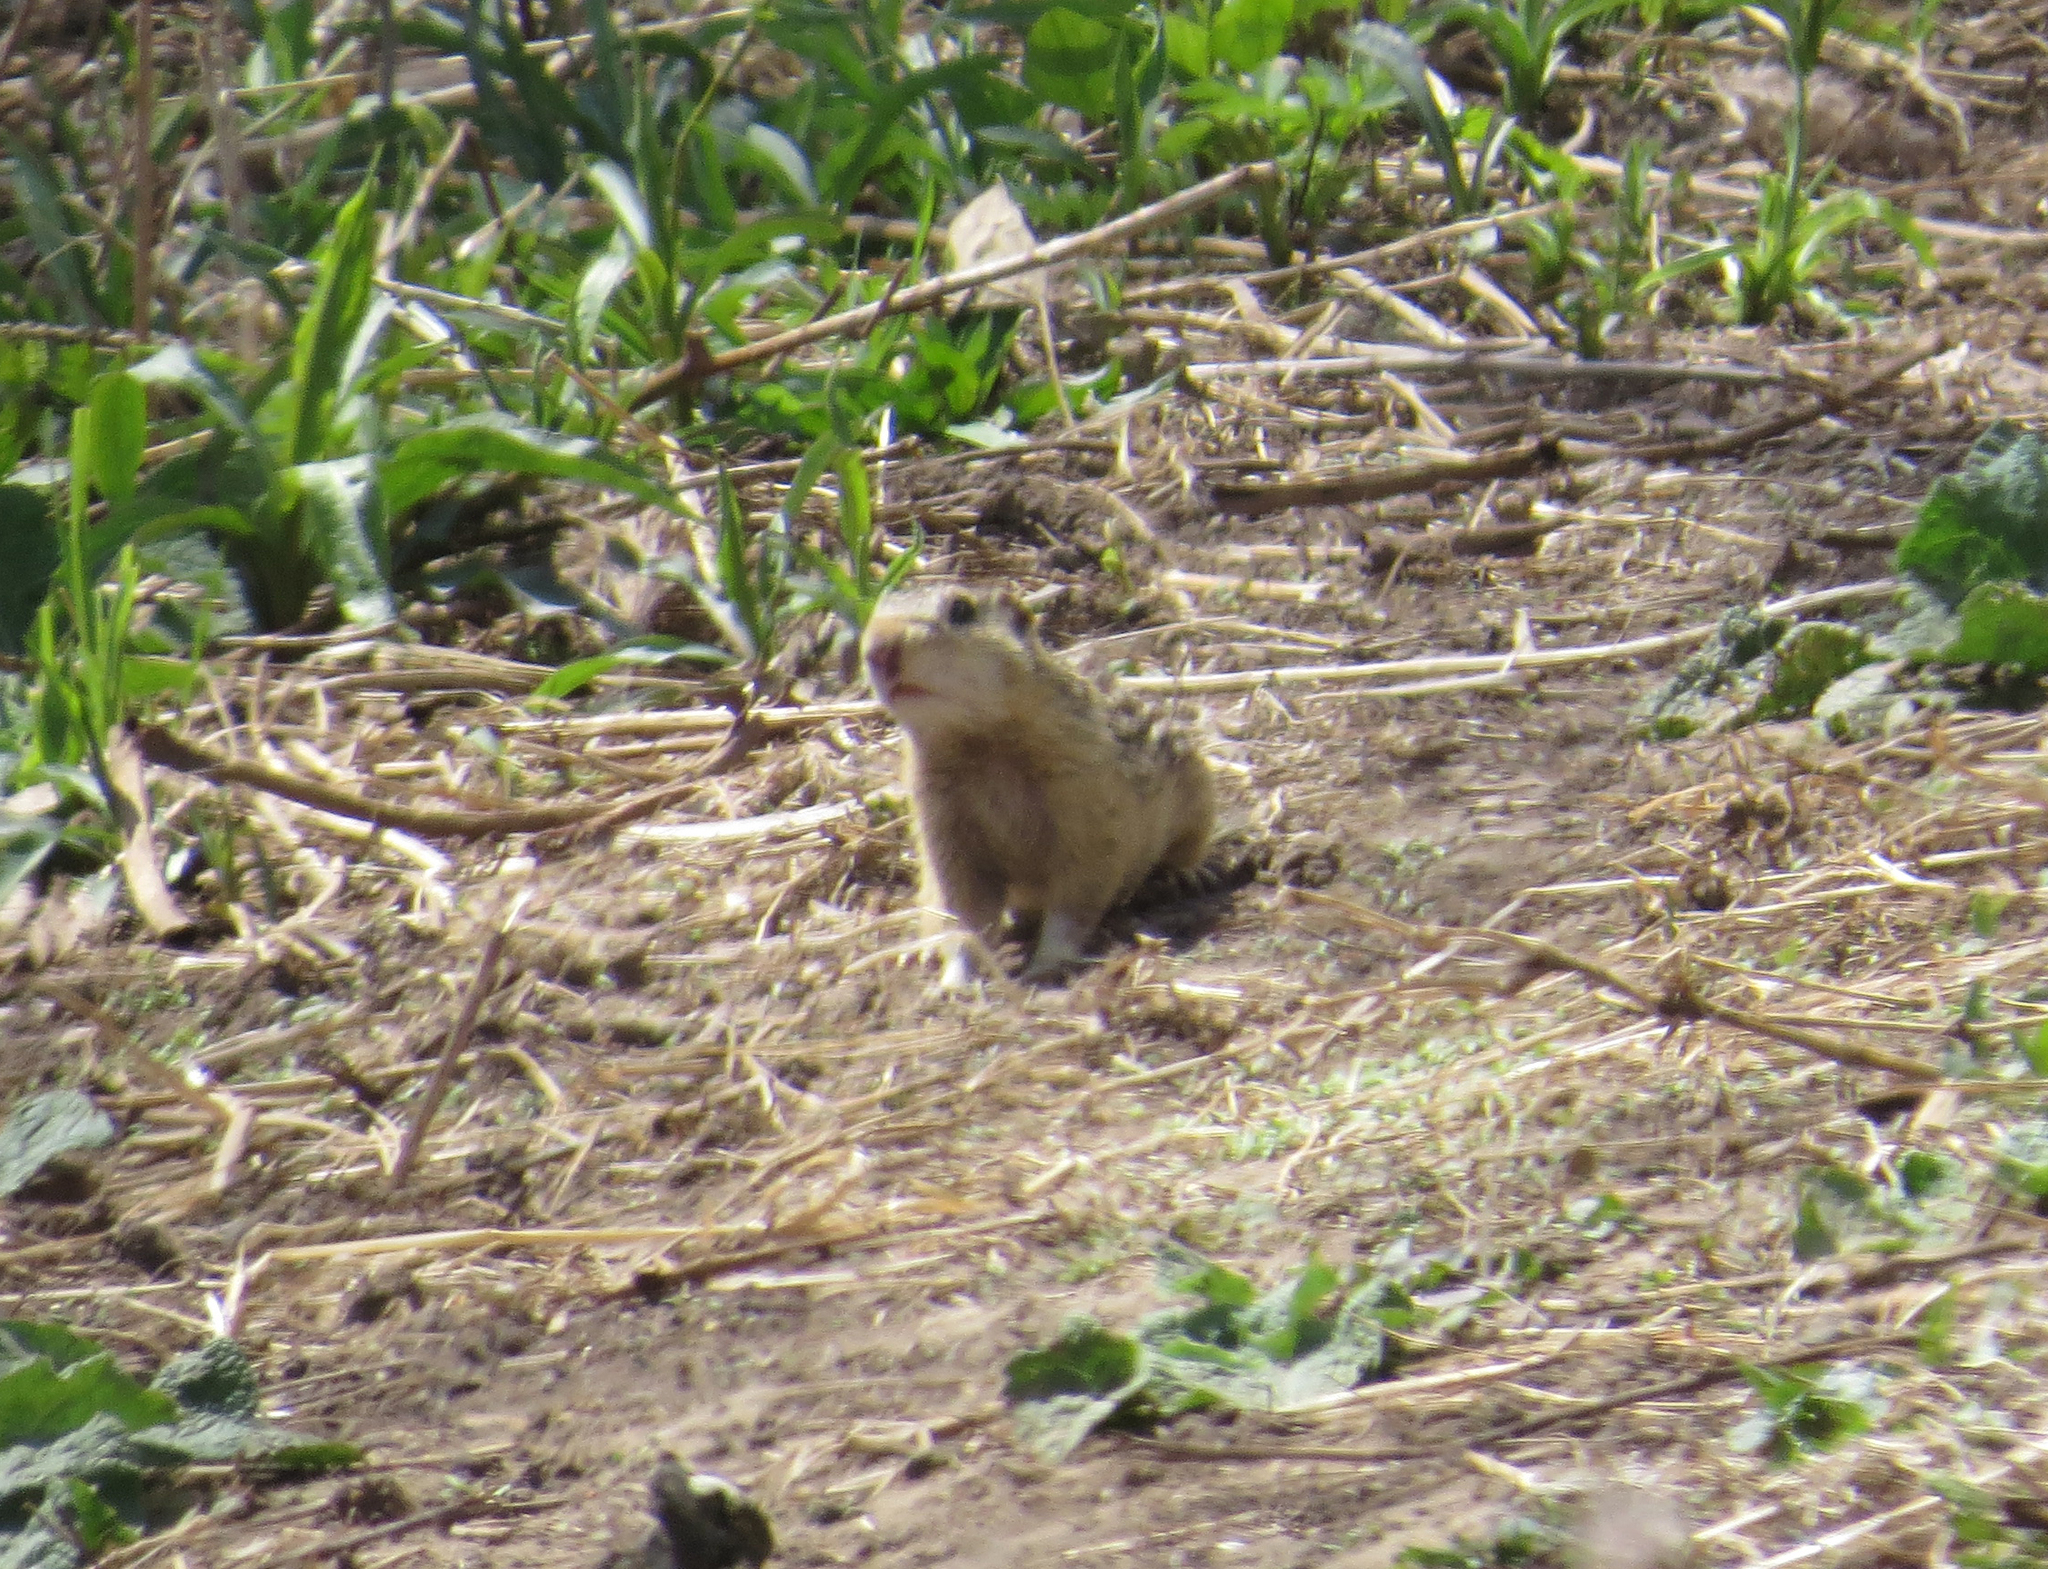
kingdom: Animalia
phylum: Chordata
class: Mammalia
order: Rodentia
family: Sciuridae
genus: Ictidomys
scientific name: Ictidomys tridecemlineatus
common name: Thirteen-lined ground squirrel
